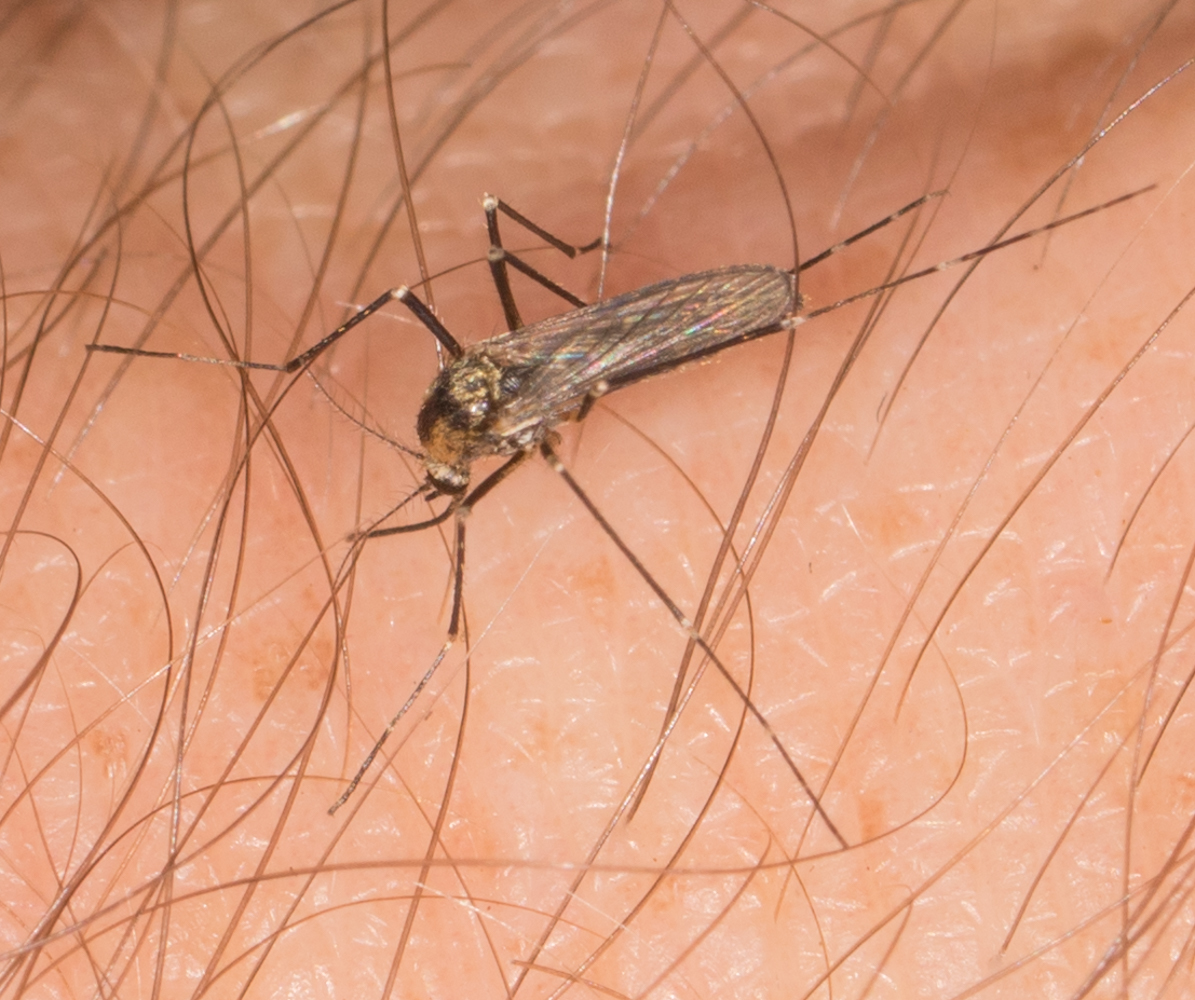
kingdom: Animalia
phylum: Arthropoda
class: Insecta
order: Diptera
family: Culicidae
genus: Aedes
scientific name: Aedes atropalpus
